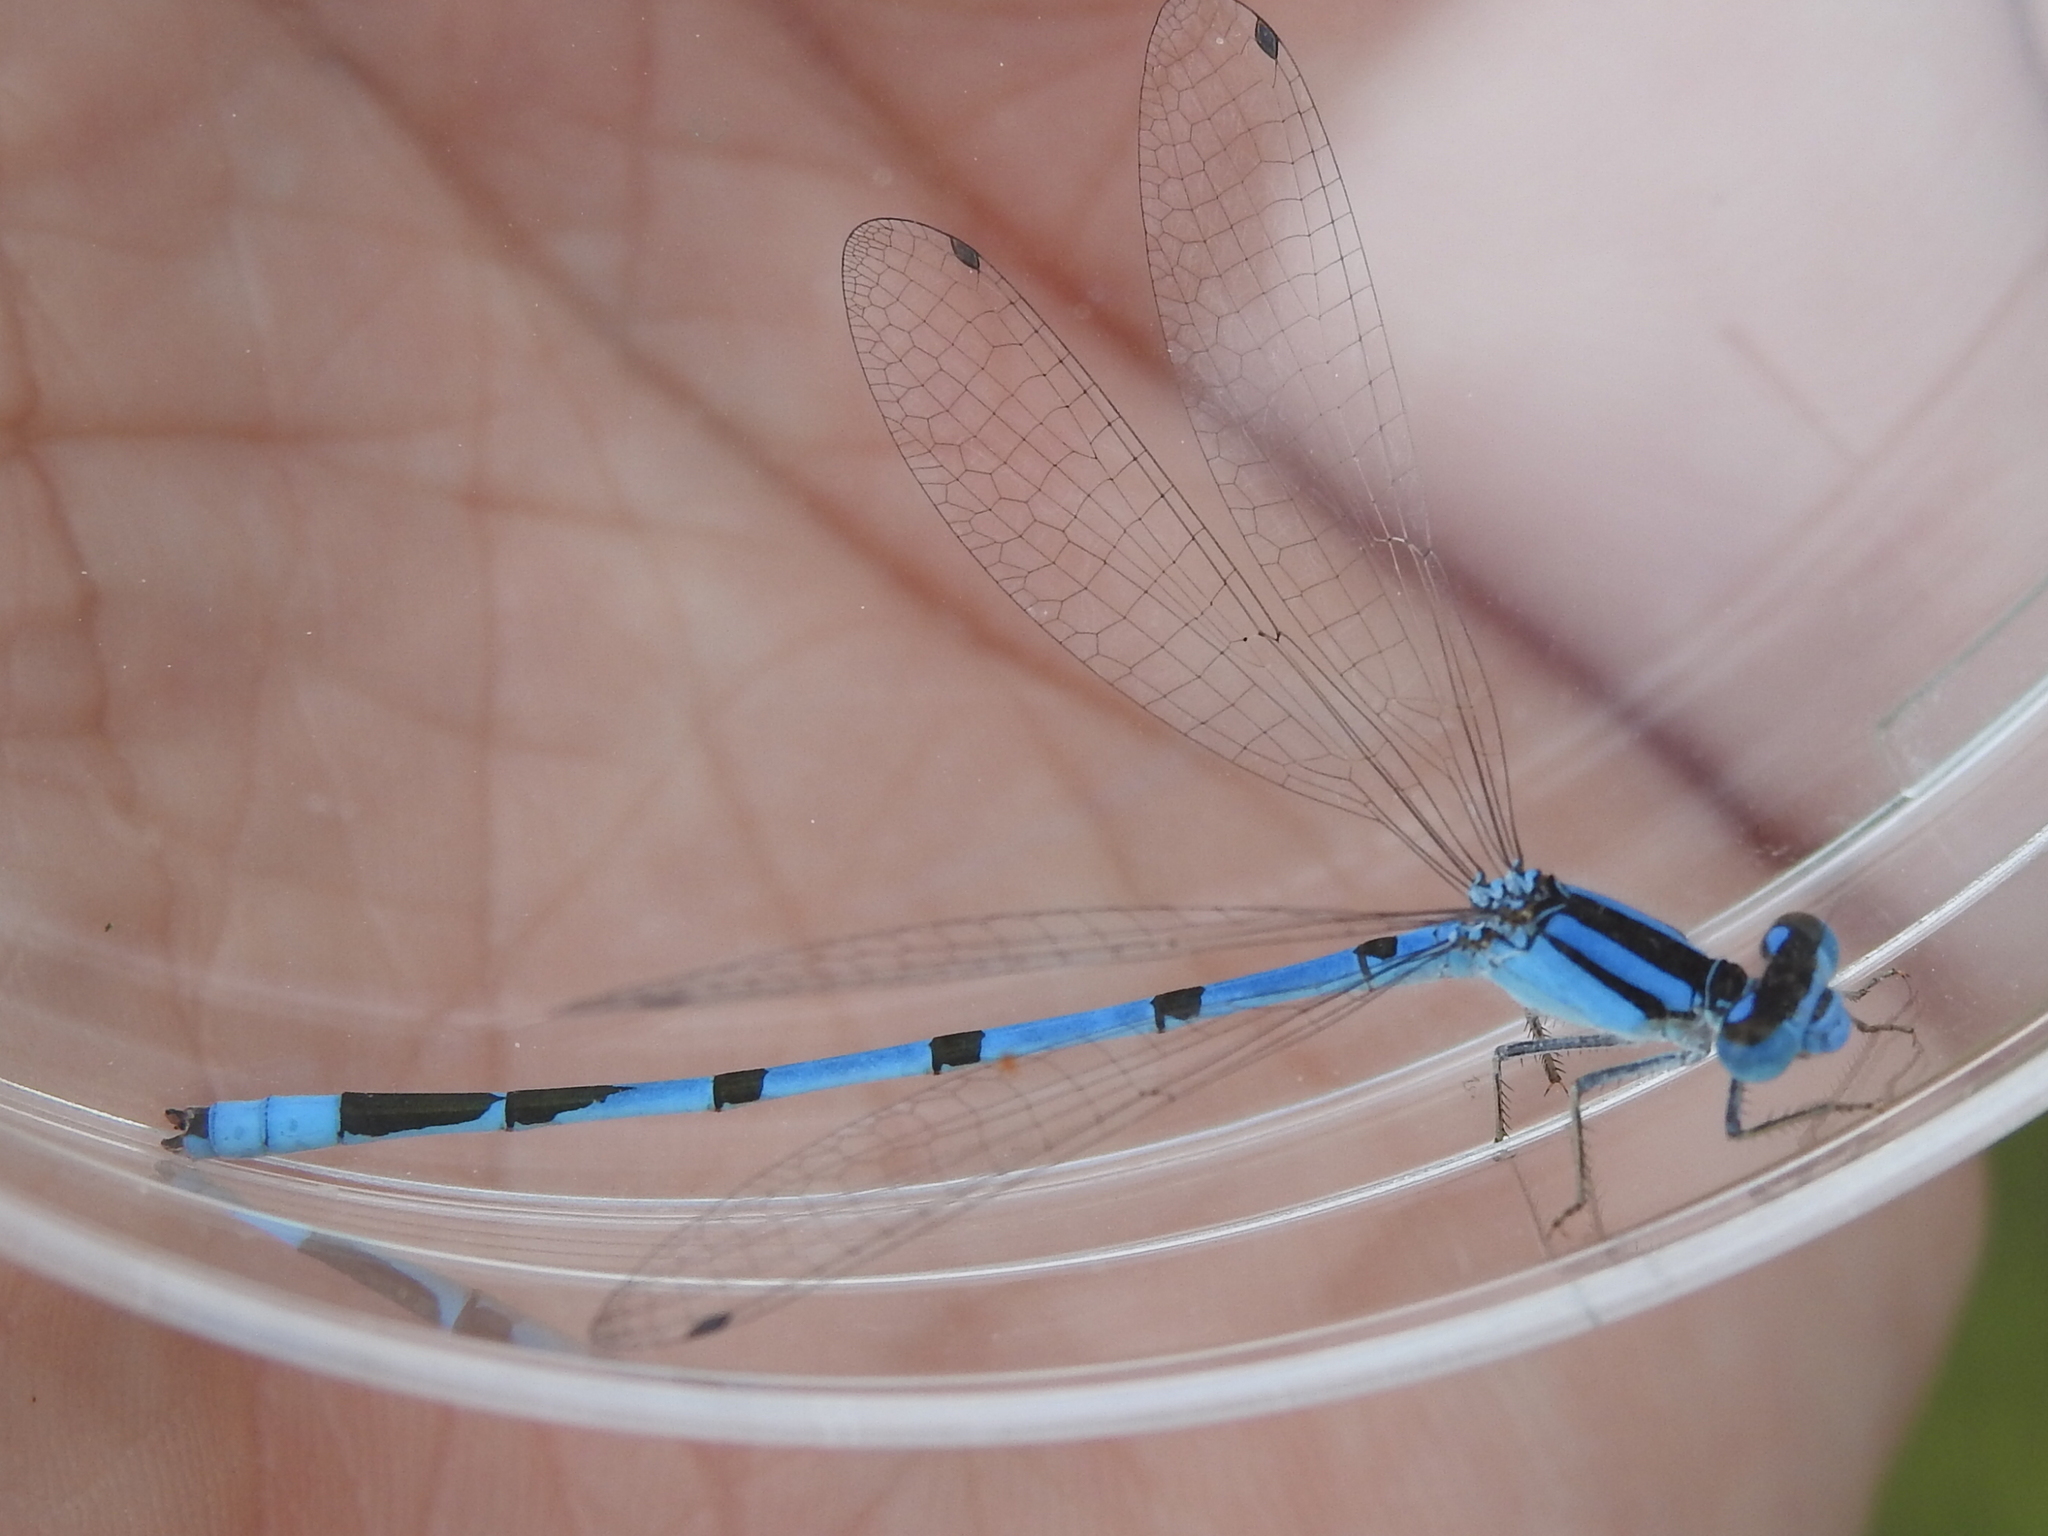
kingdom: Animalia
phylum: Arthropoda
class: Insecta
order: Odonata
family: Coenagrionidae
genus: Enallagma
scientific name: Enallagma civile
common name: Damselfly
